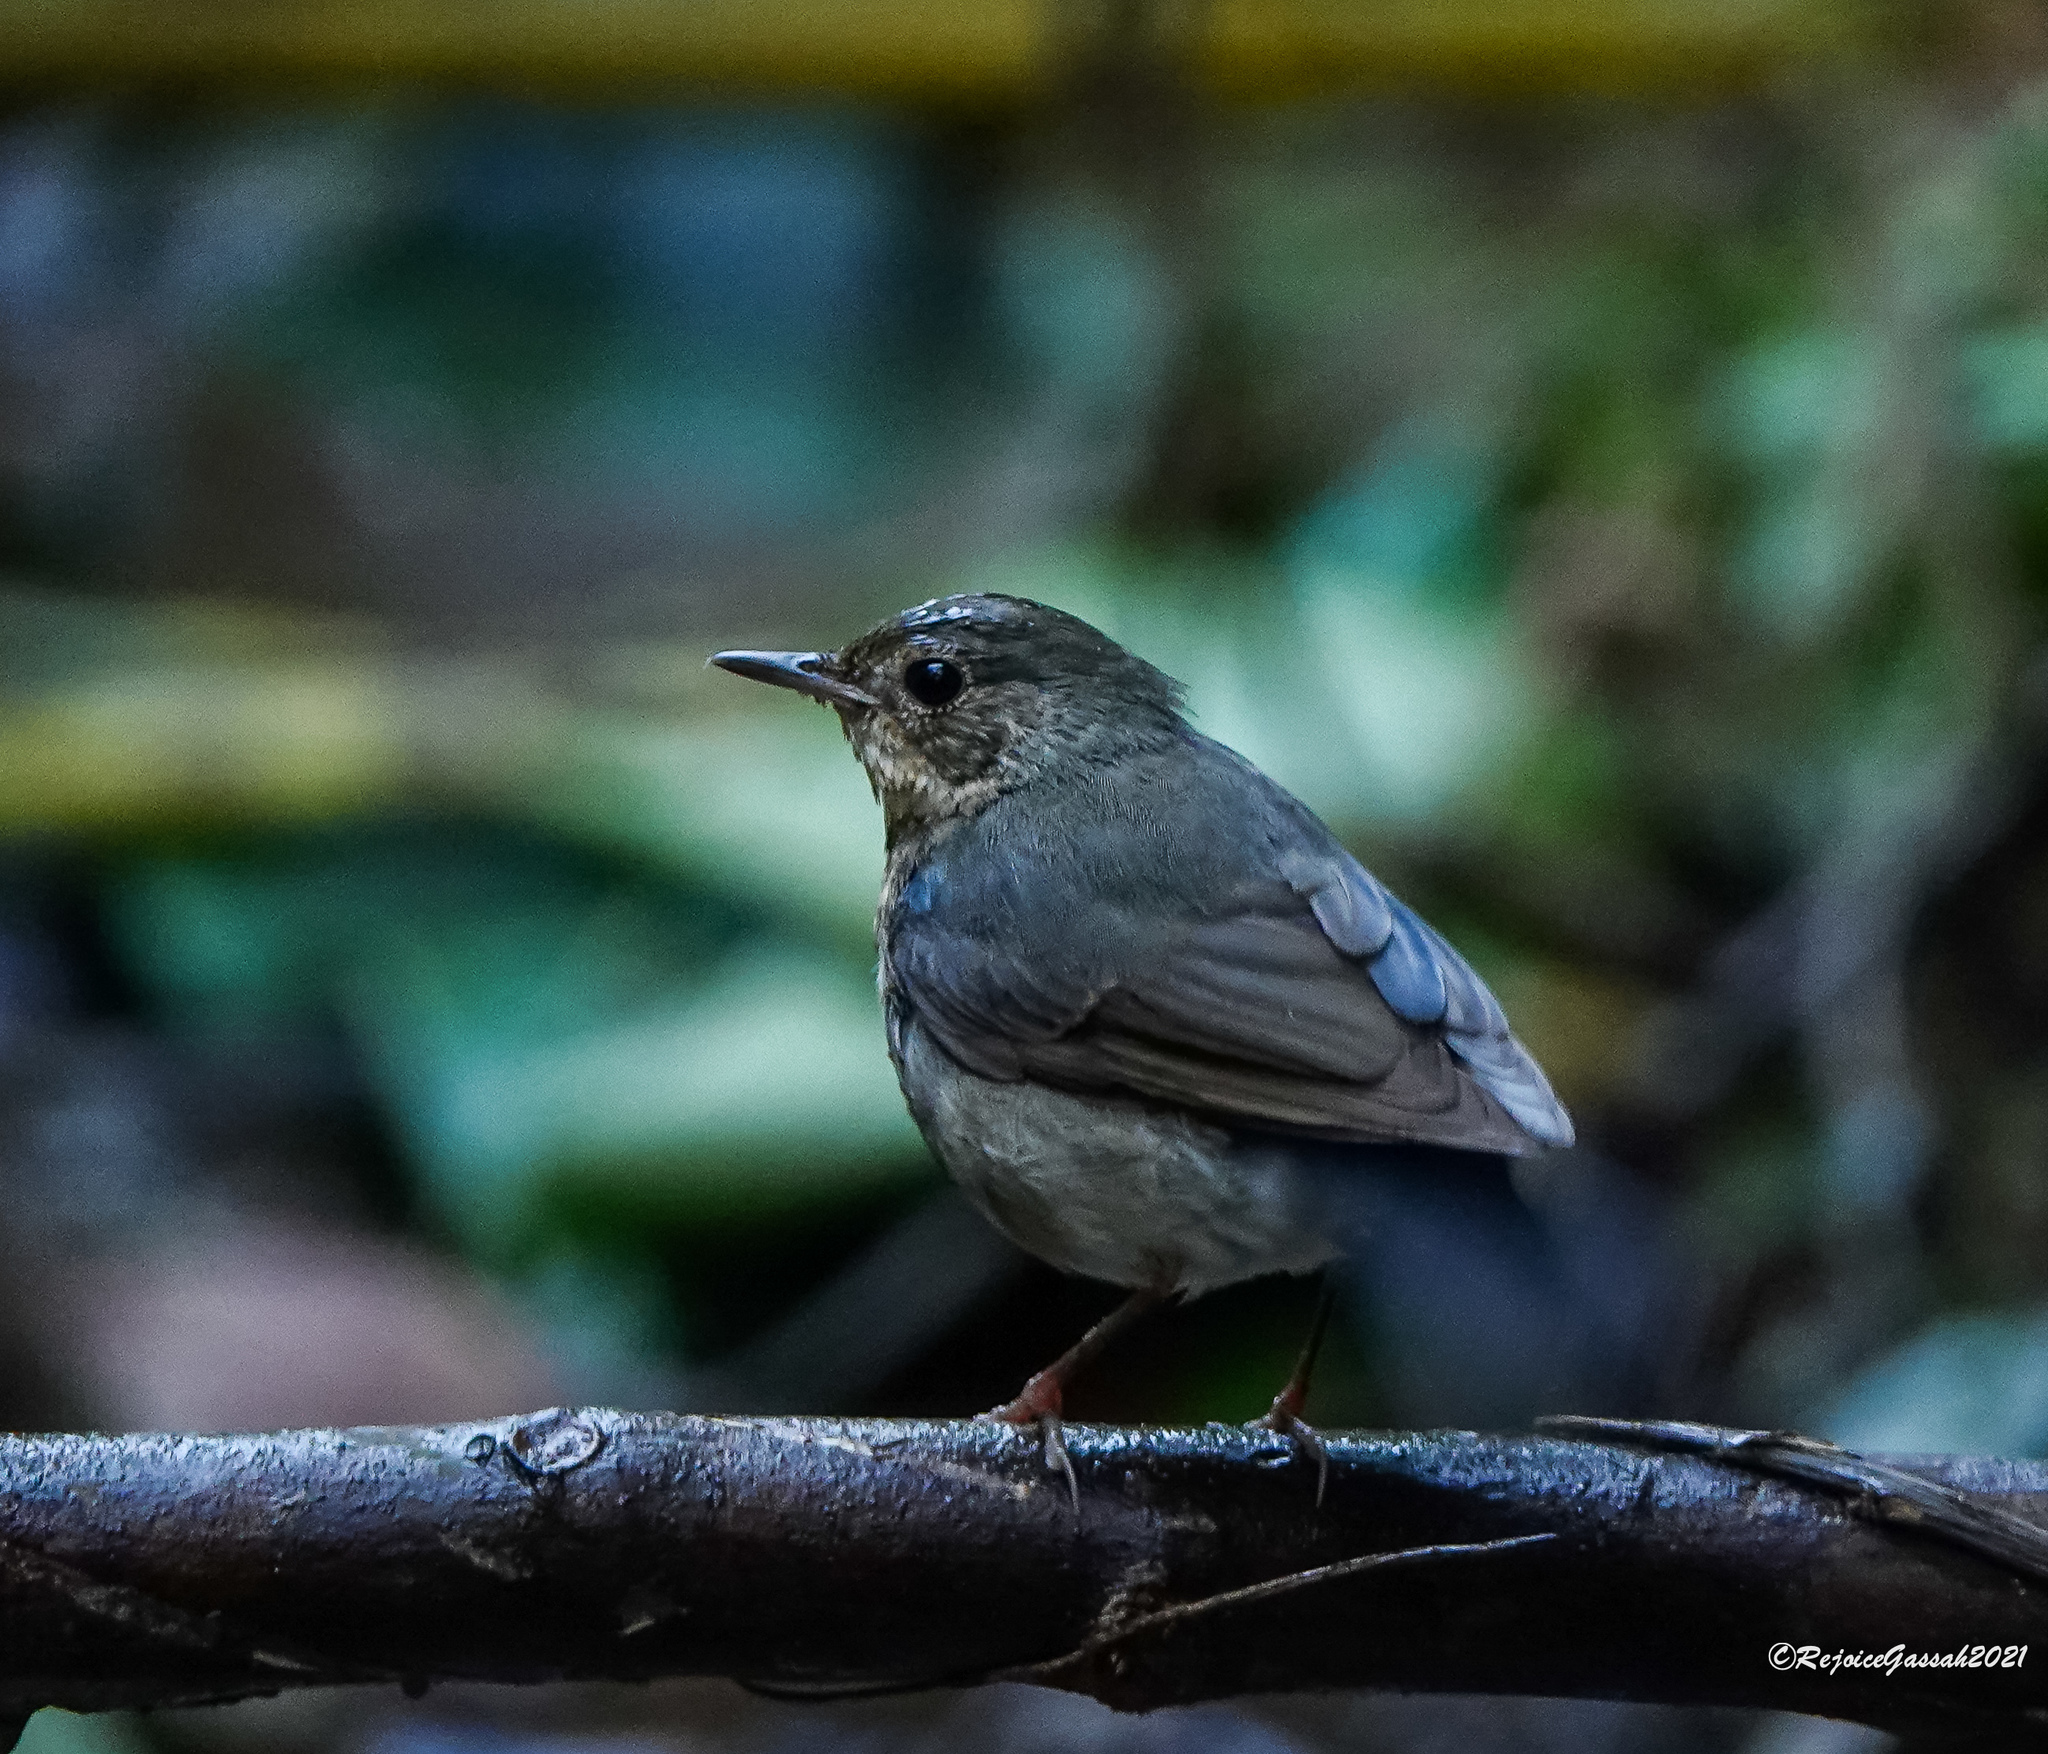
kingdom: Animalia
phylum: Chordata
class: Aves
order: Passeriformes
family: Muscicapidae
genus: Luscinia
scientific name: Luscinia cyane
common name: Siberian blue robin
